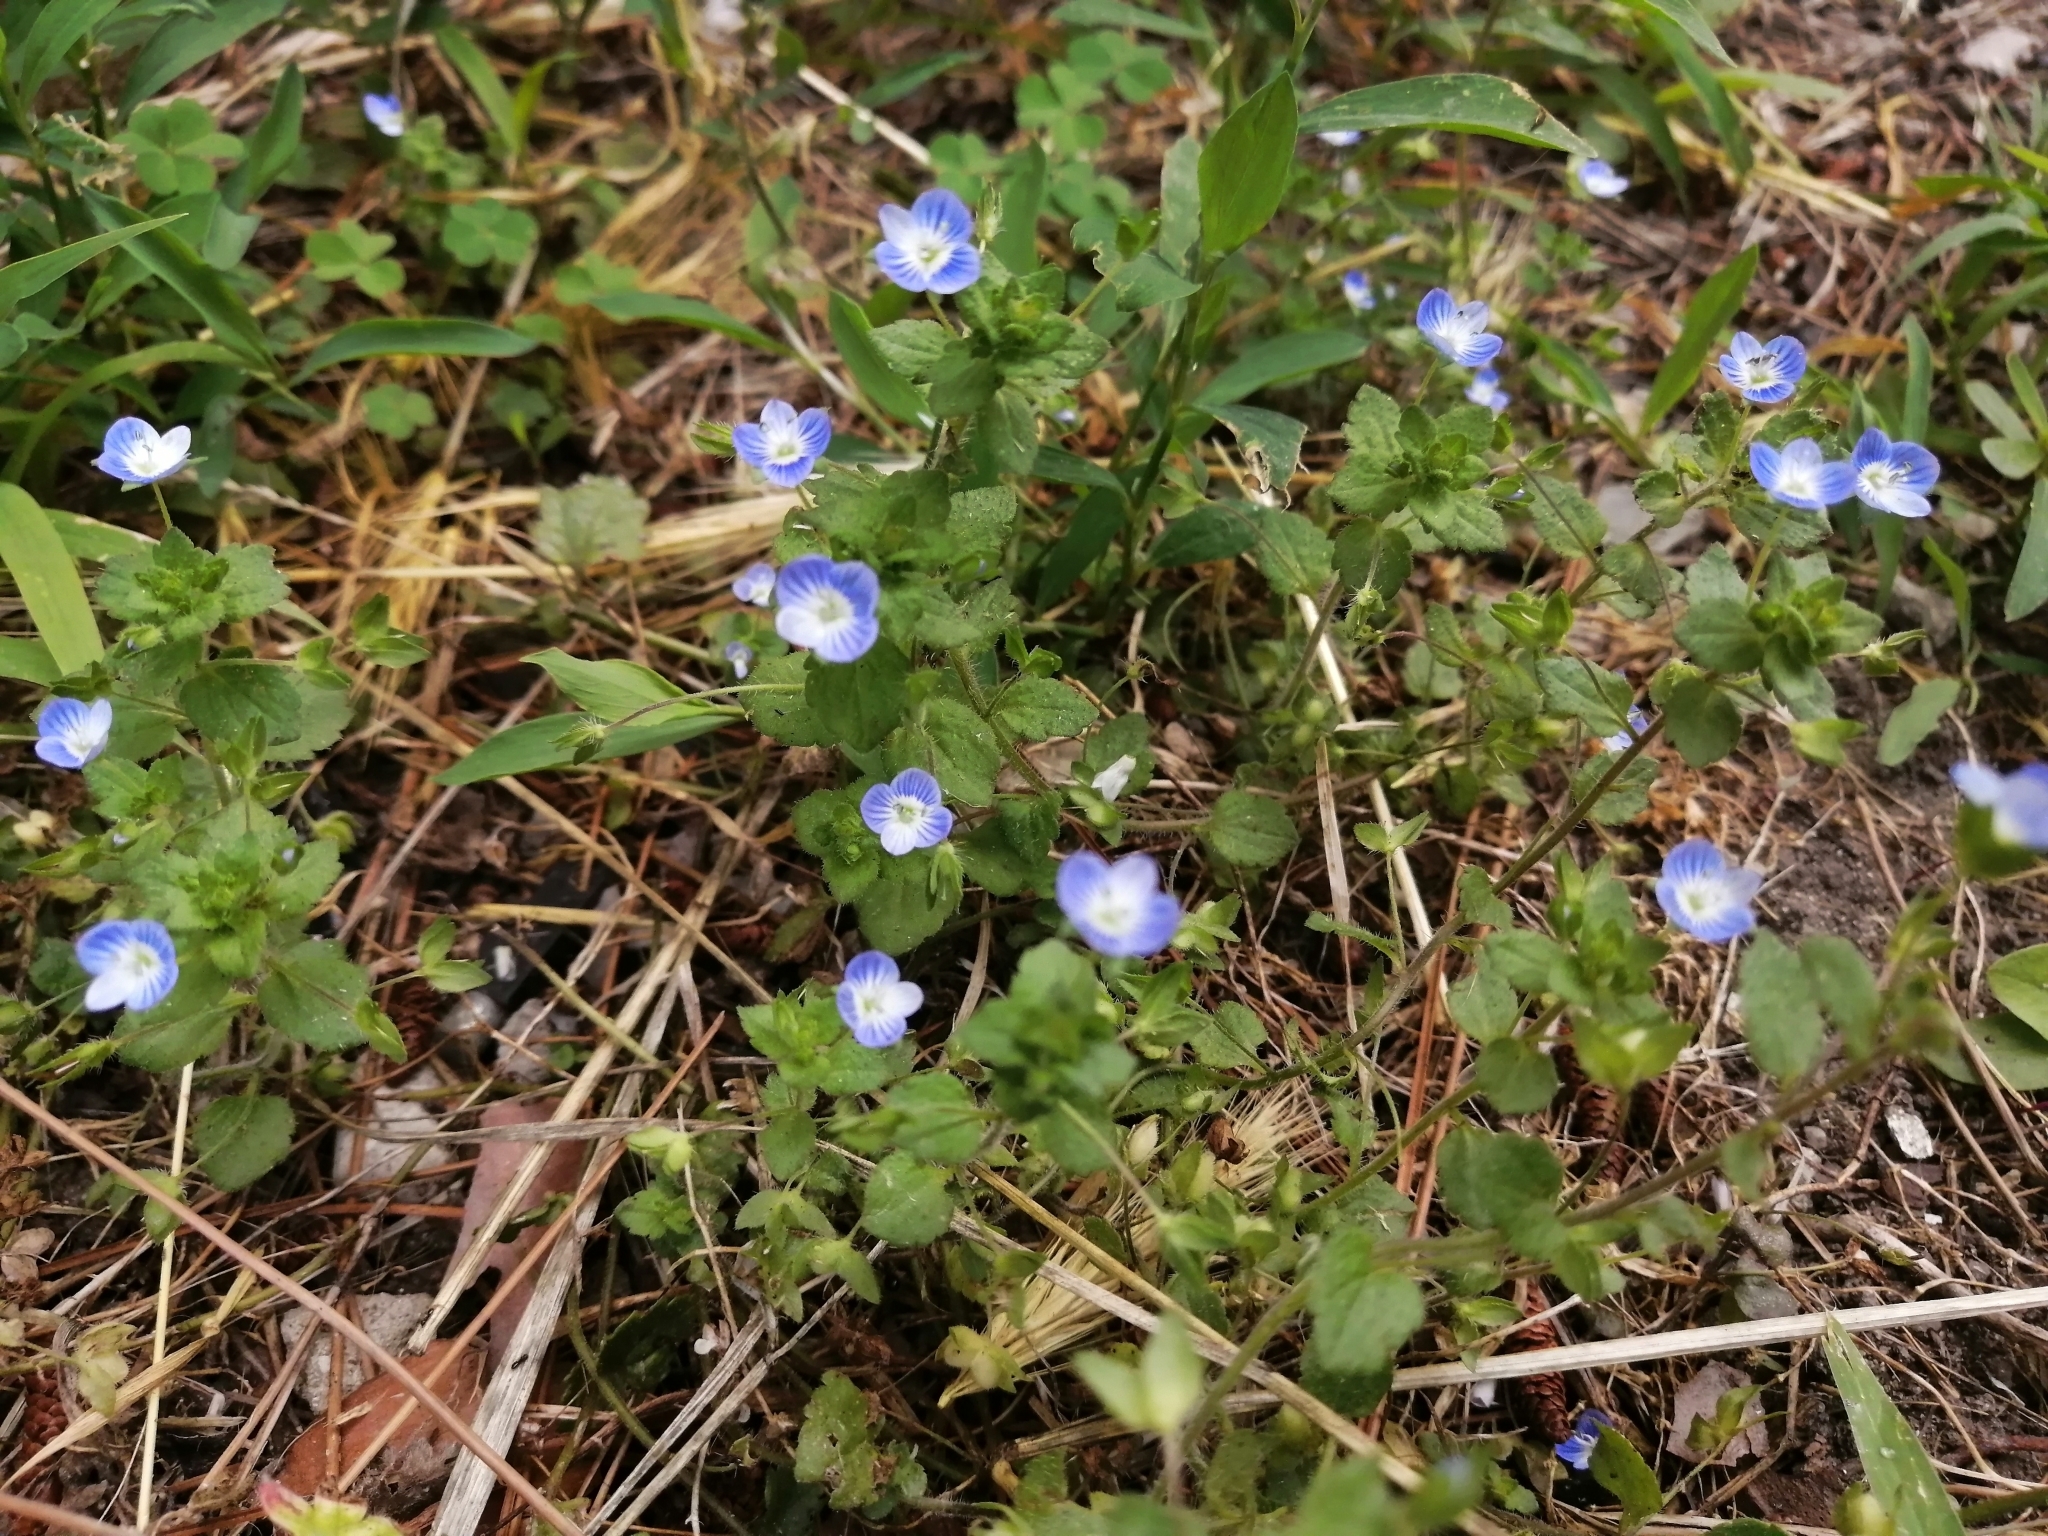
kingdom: Plantae
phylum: Tracheophyta
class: Magnoliopsida
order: Lamiales
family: Plantaginaceae
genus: Veronica
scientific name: Veronica persica
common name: Common field-speedwell
